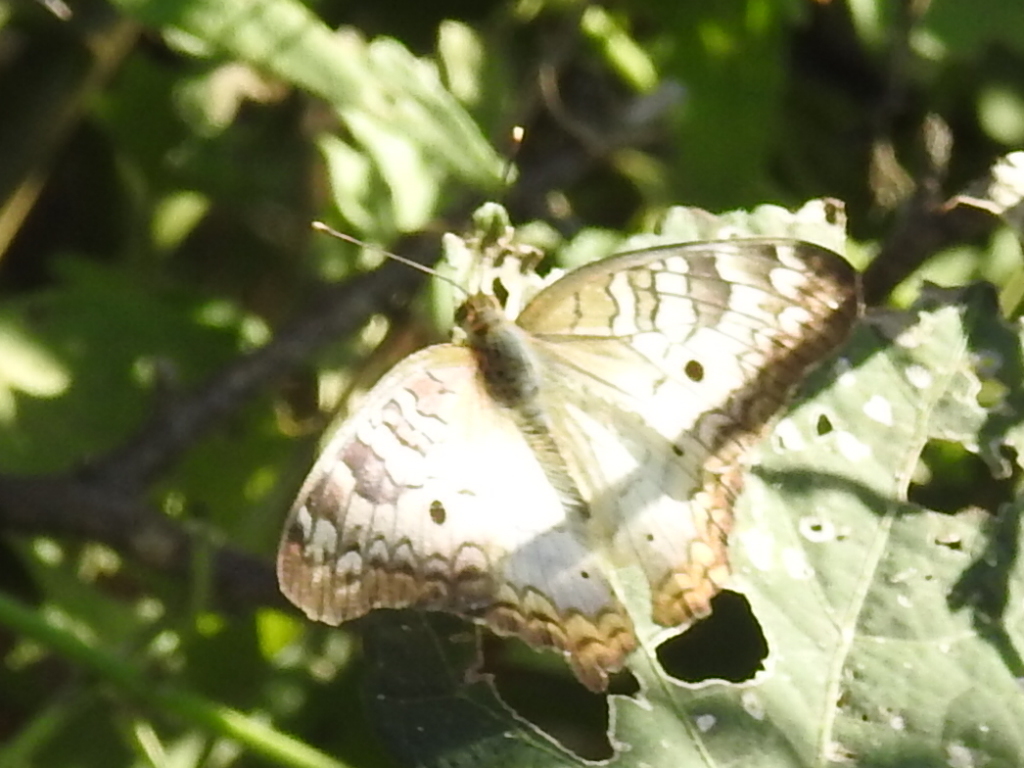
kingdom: Animalia
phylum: Arthropoda
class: Insecta
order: Lepidoptera
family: Nymphalidae
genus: Anartia
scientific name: Anartia jatrophae
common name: White peacock
